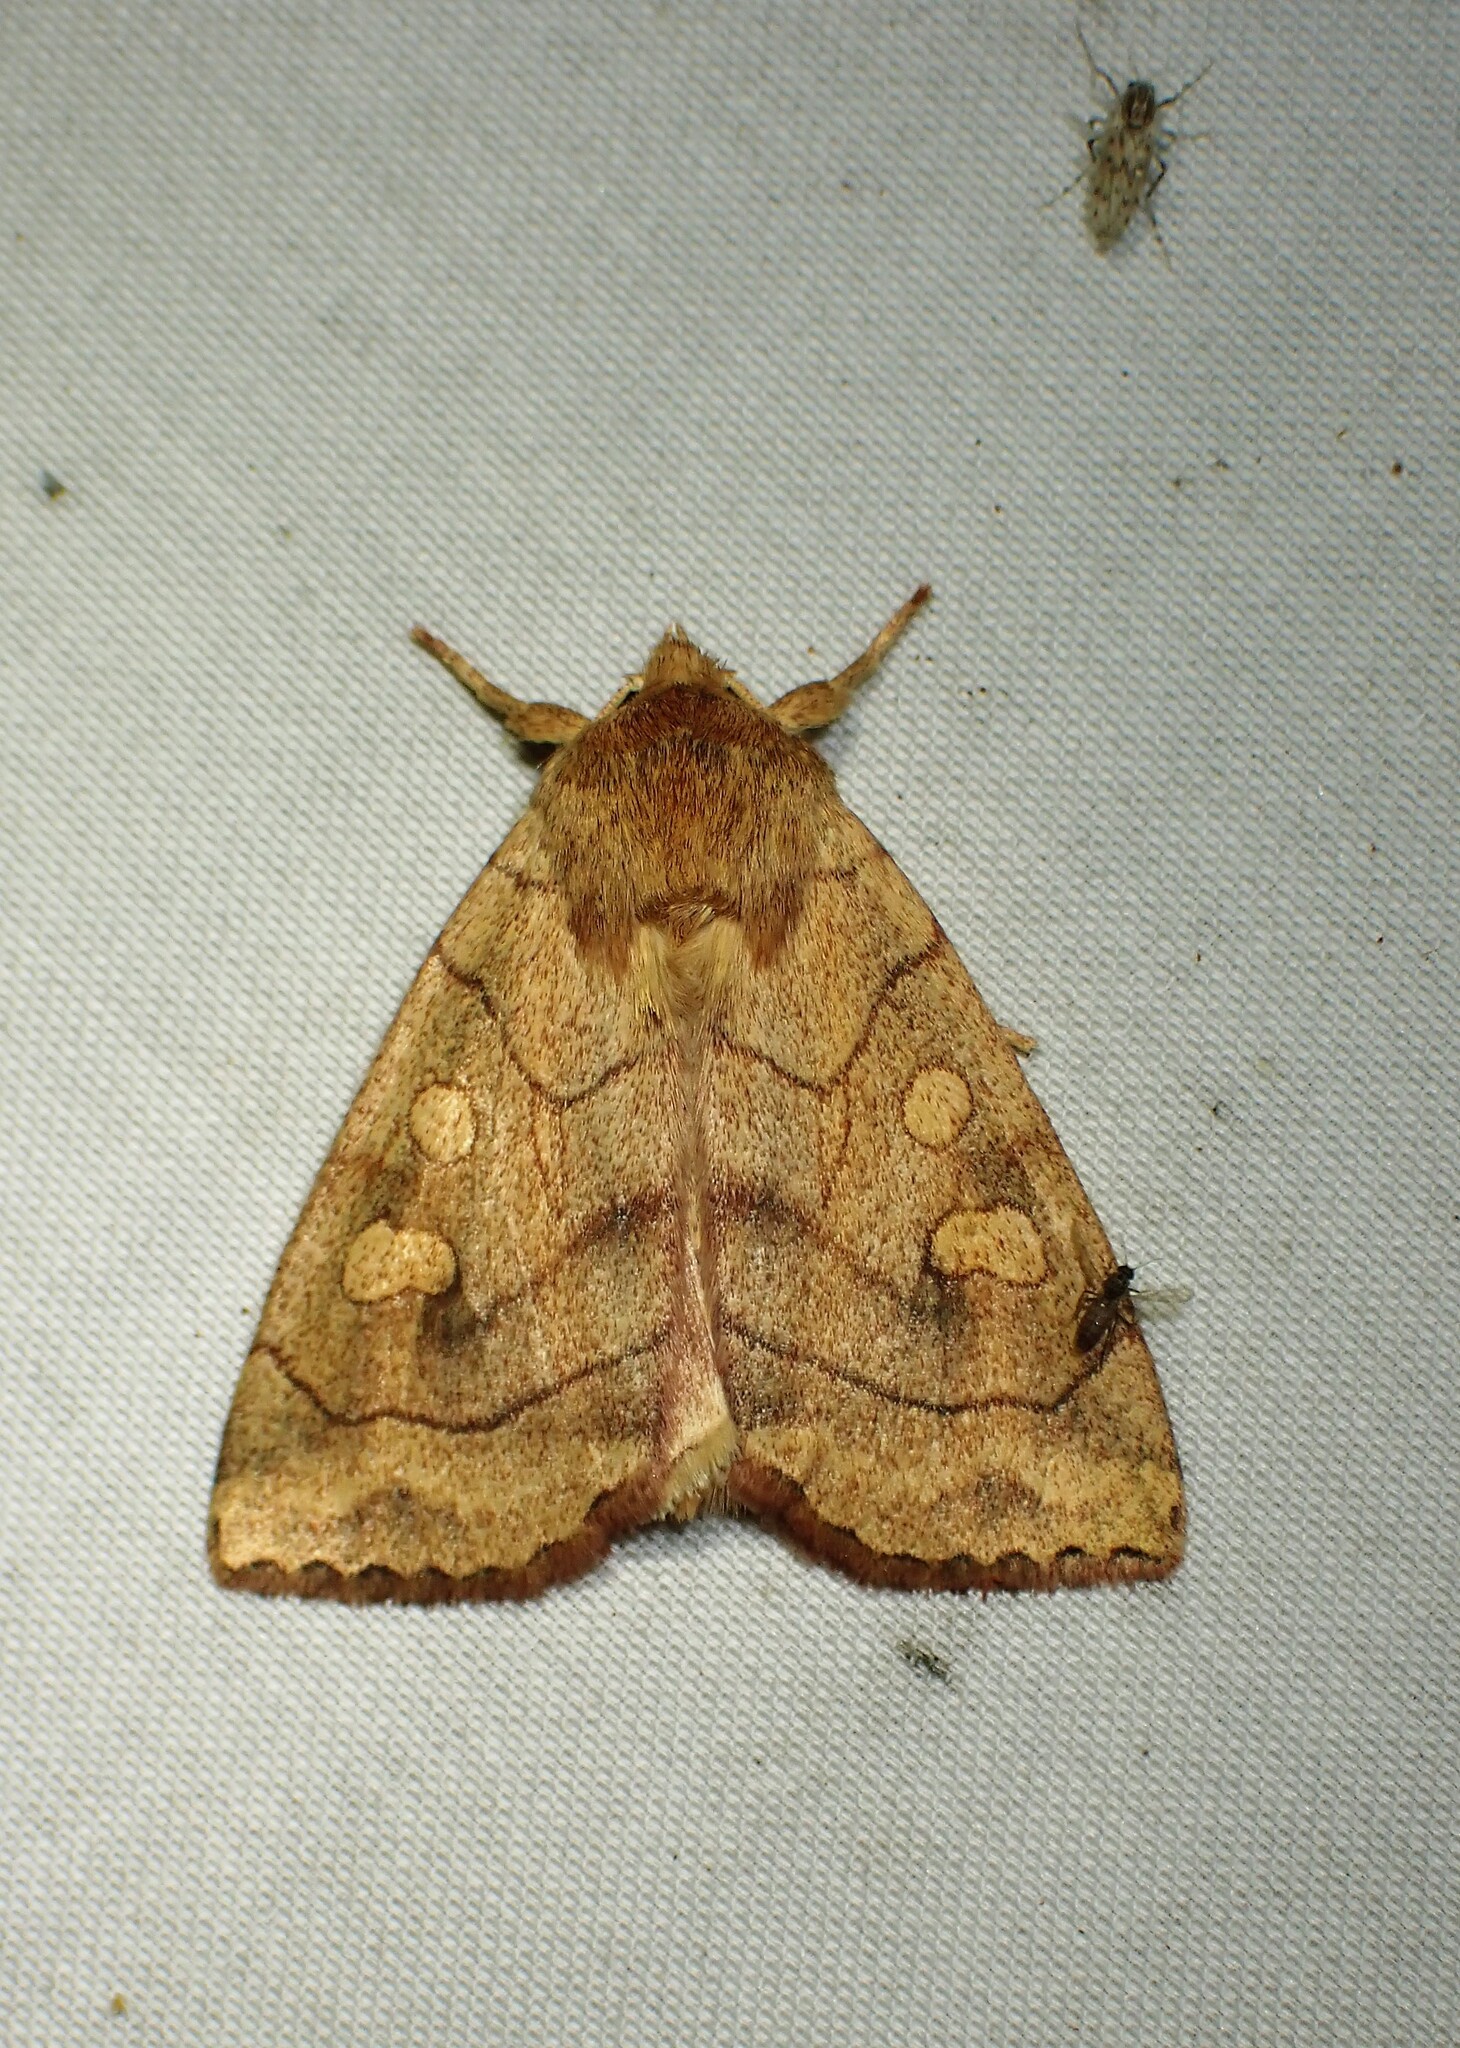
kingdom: Animalia
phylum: Arthropoda
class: Insecta
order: Lepidoptera
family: Noctuidae
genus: Enargia
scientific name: Enargia decolor
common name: Aspen twoleaf tier moth
